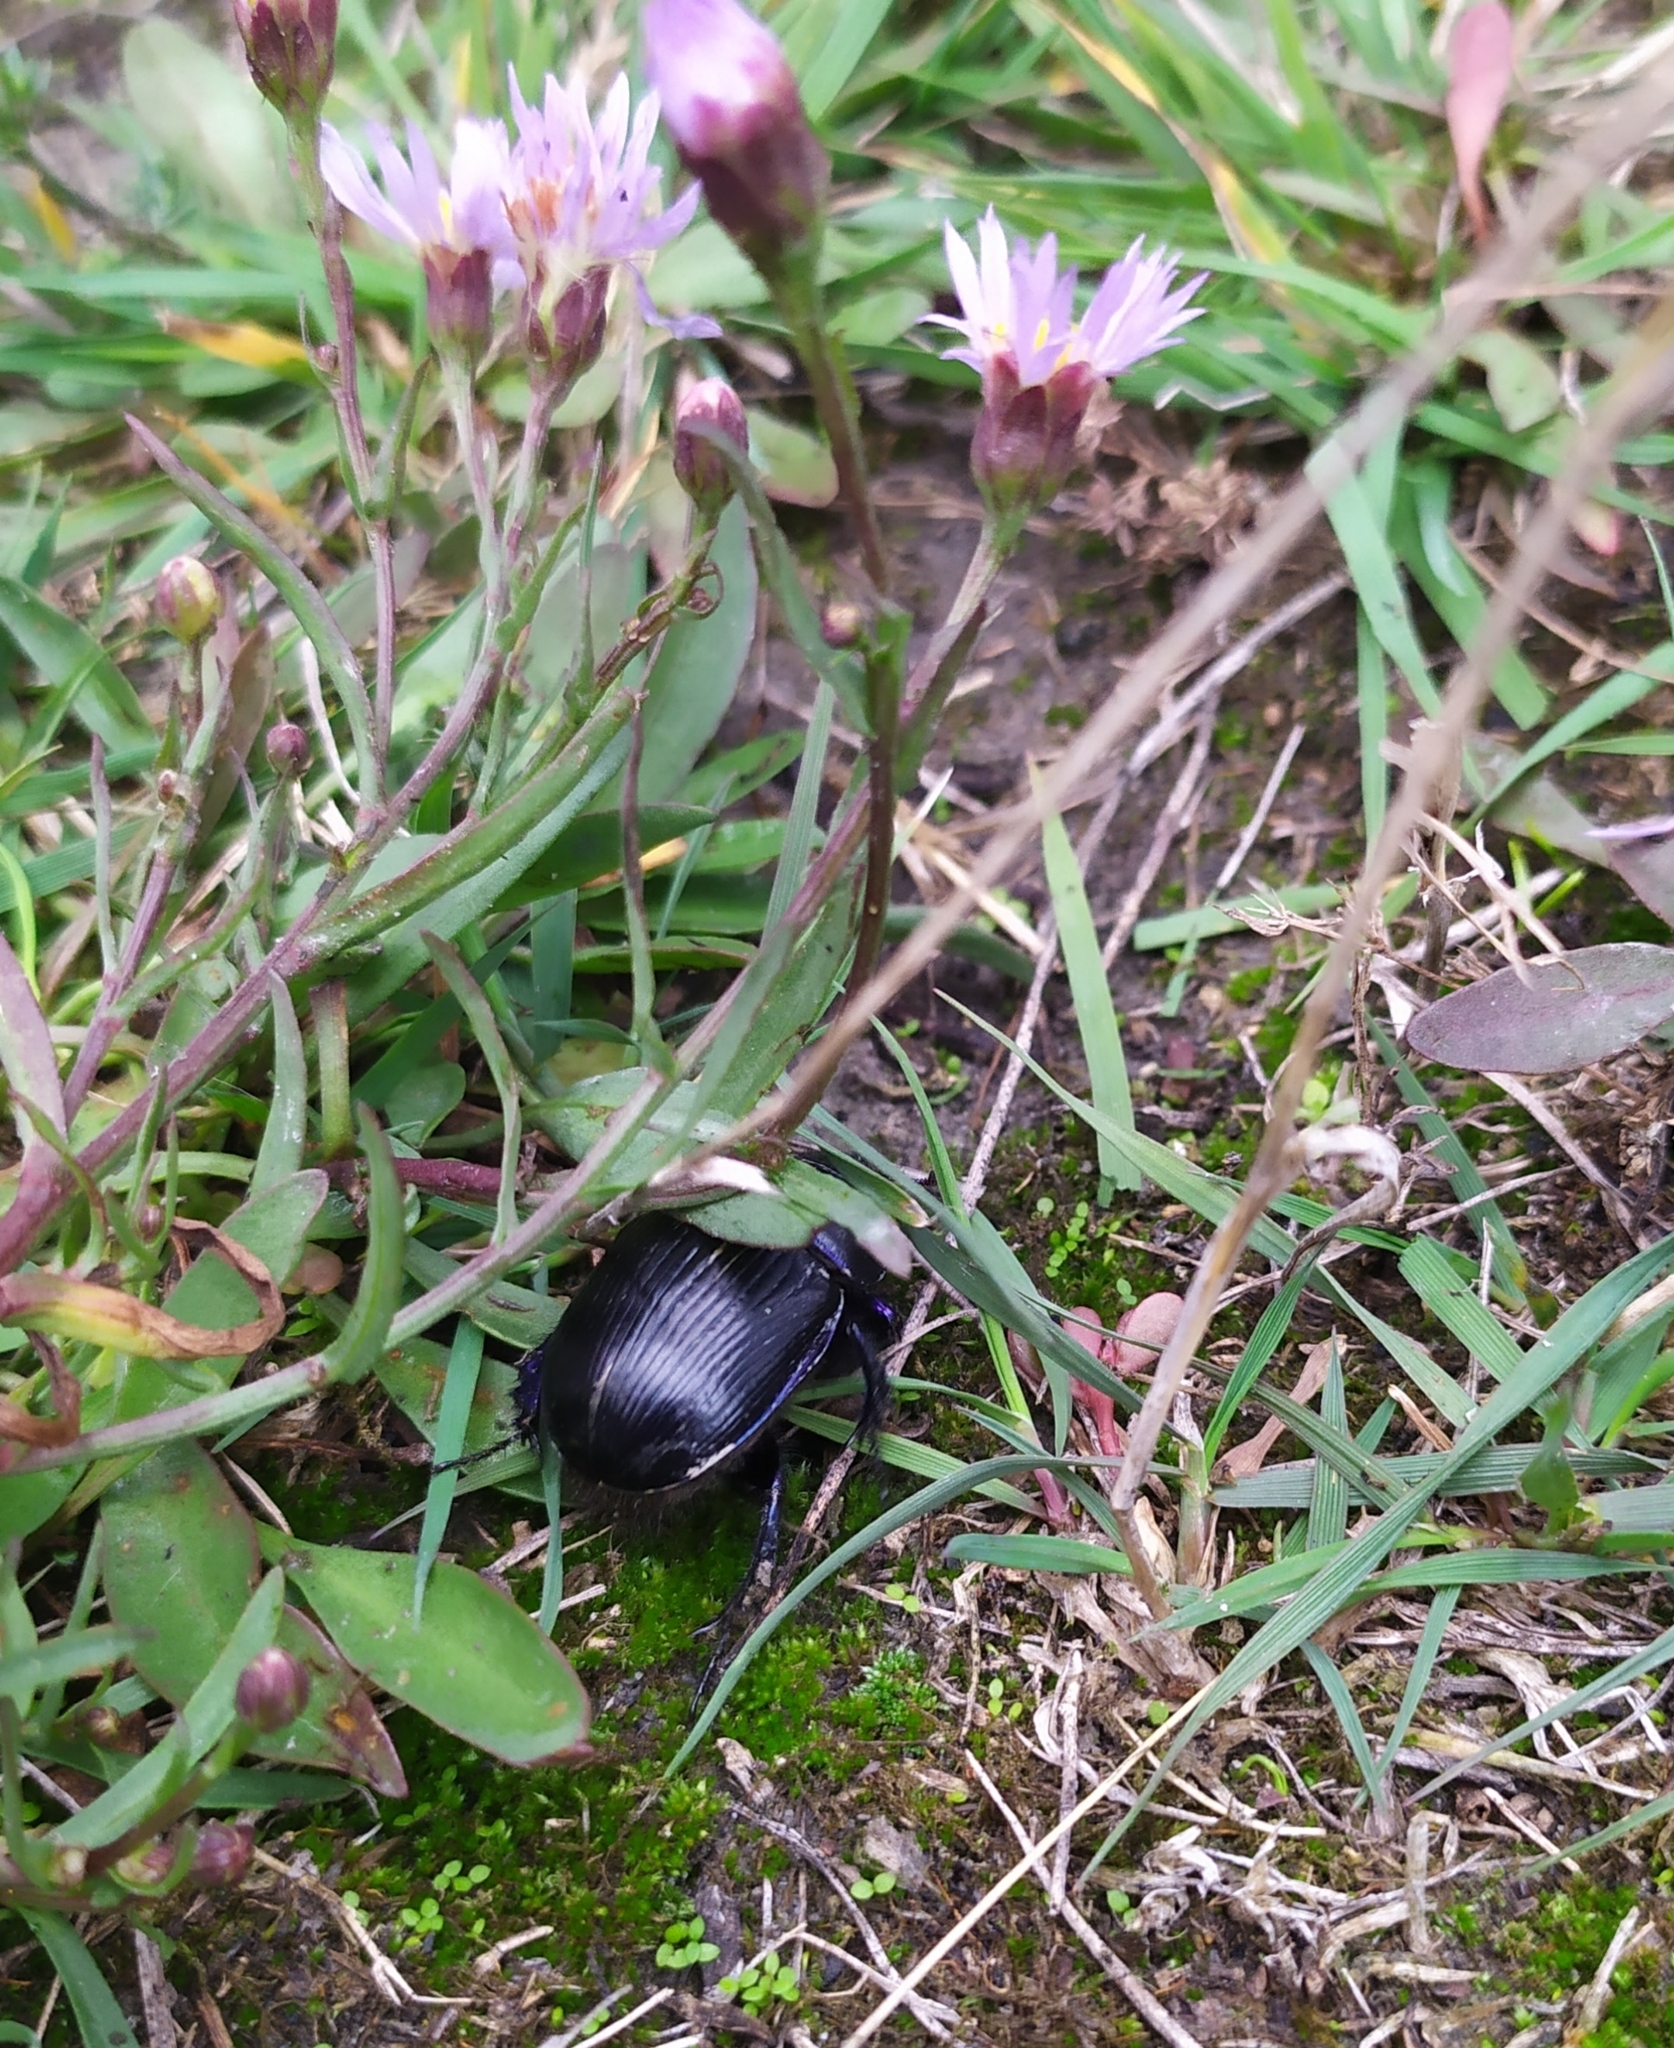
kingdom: Animalia
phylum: Arthropoda
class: Insecta
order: Coleoptera
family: Geotrupidae
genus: Geotrupes
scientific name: Geotrupes spiniger
